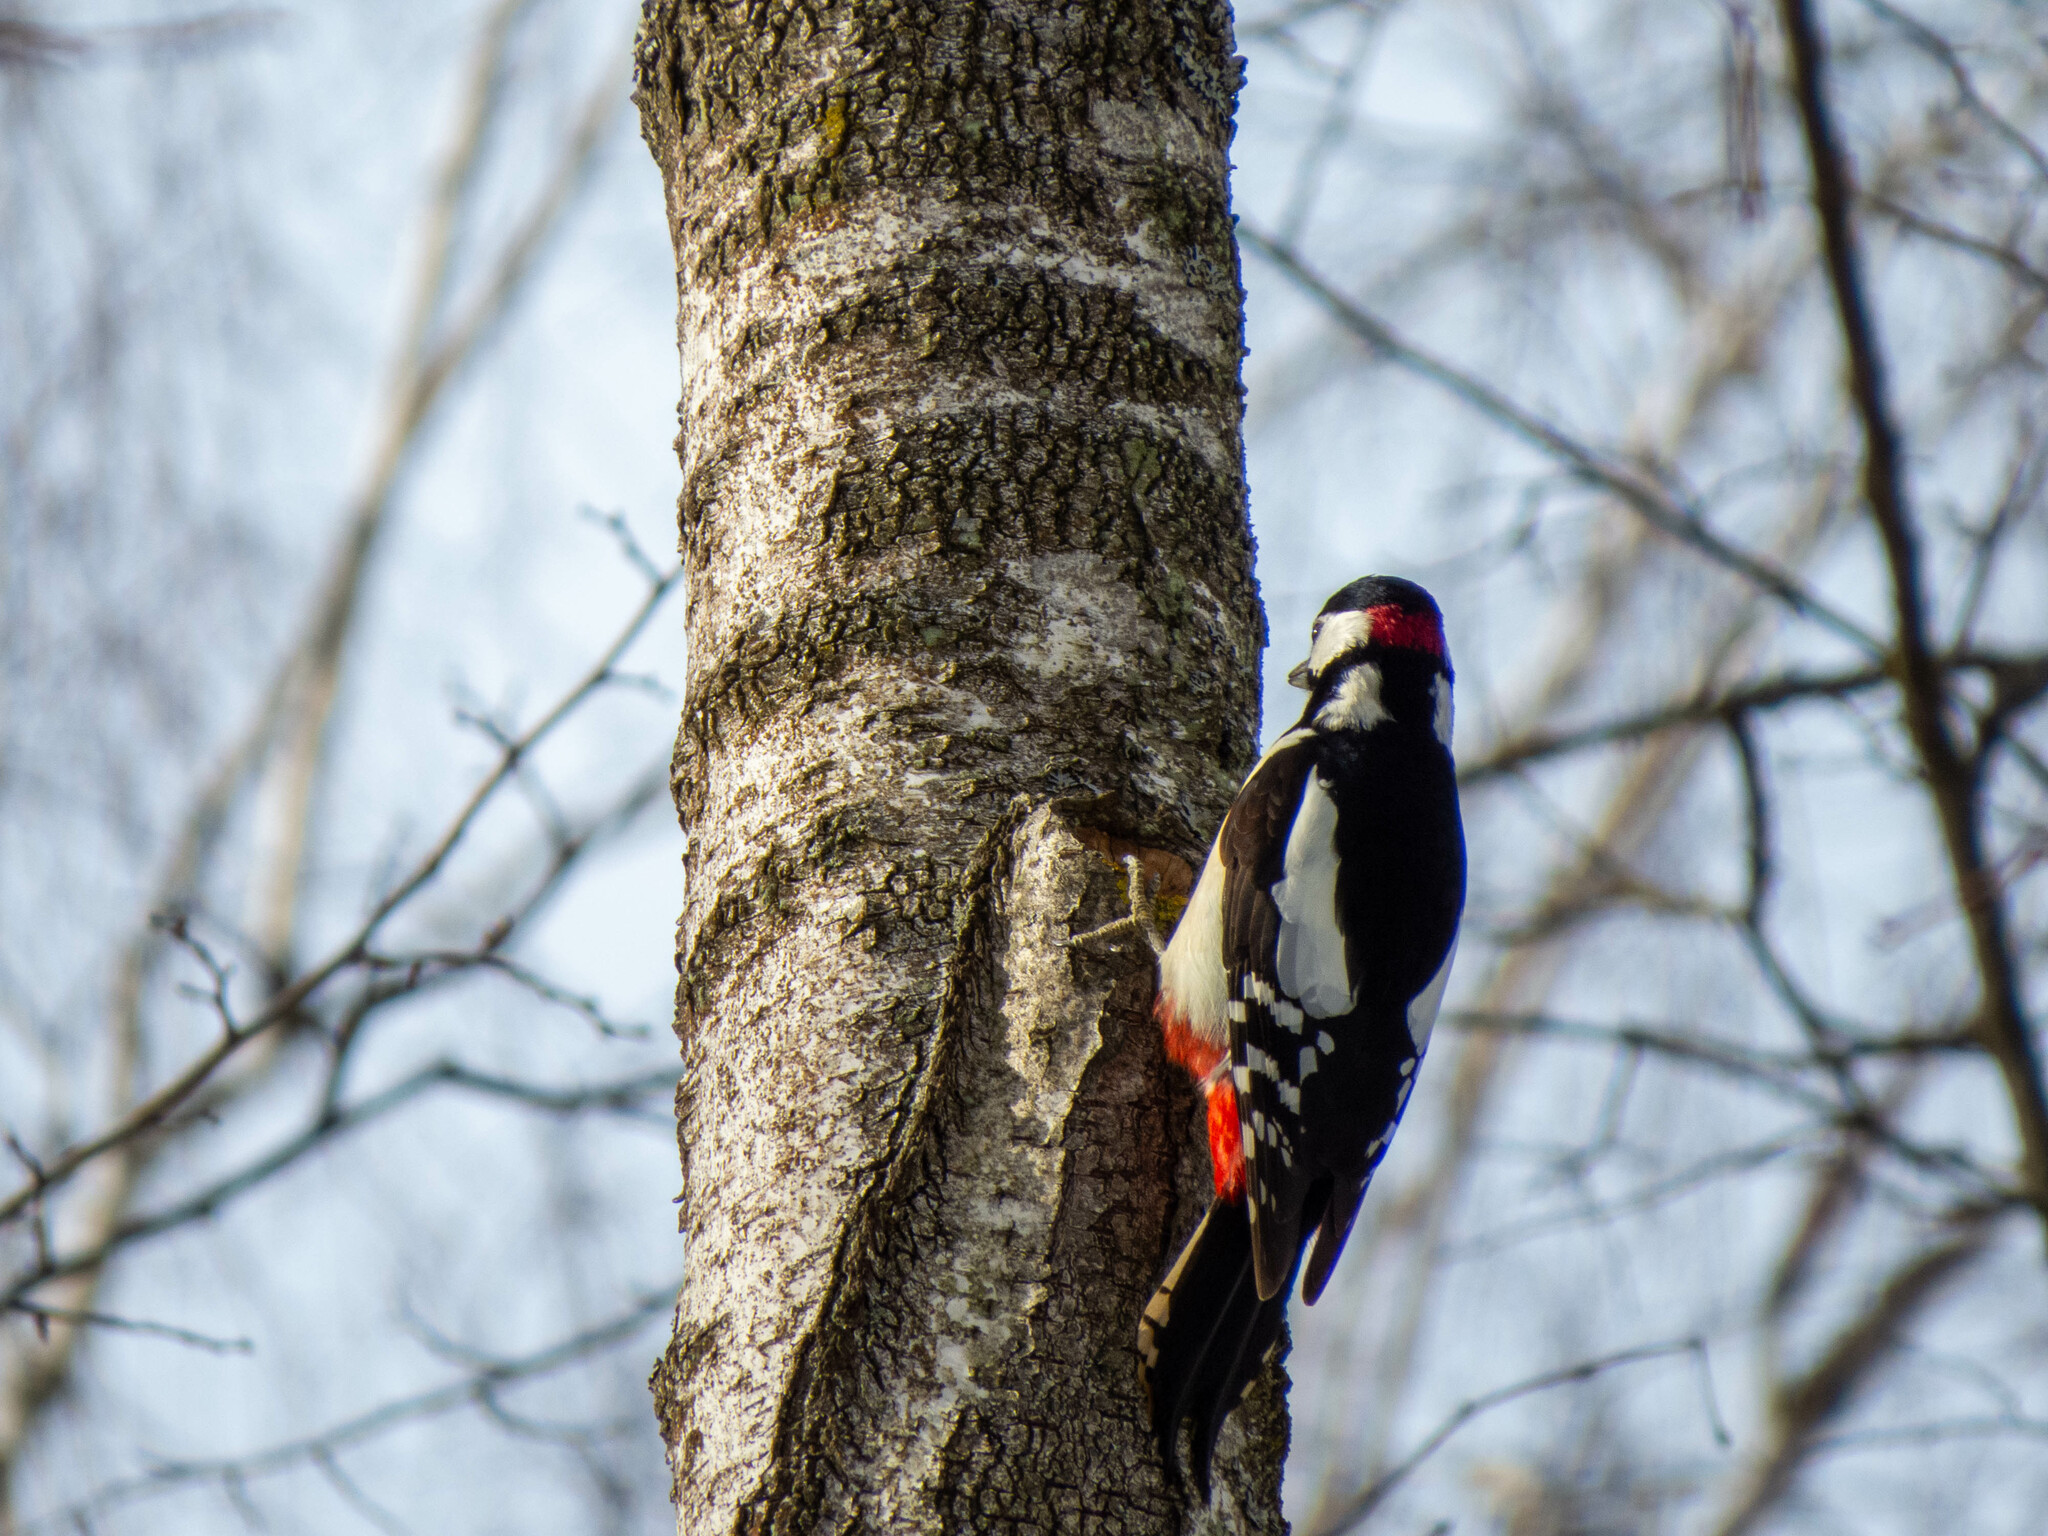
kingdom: Animalia
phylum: Chordata
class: Aves
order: Piciformes
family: Picidae
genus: Dendrocopos
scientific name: Dendrocopos major
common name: Great spotted woodpecker
